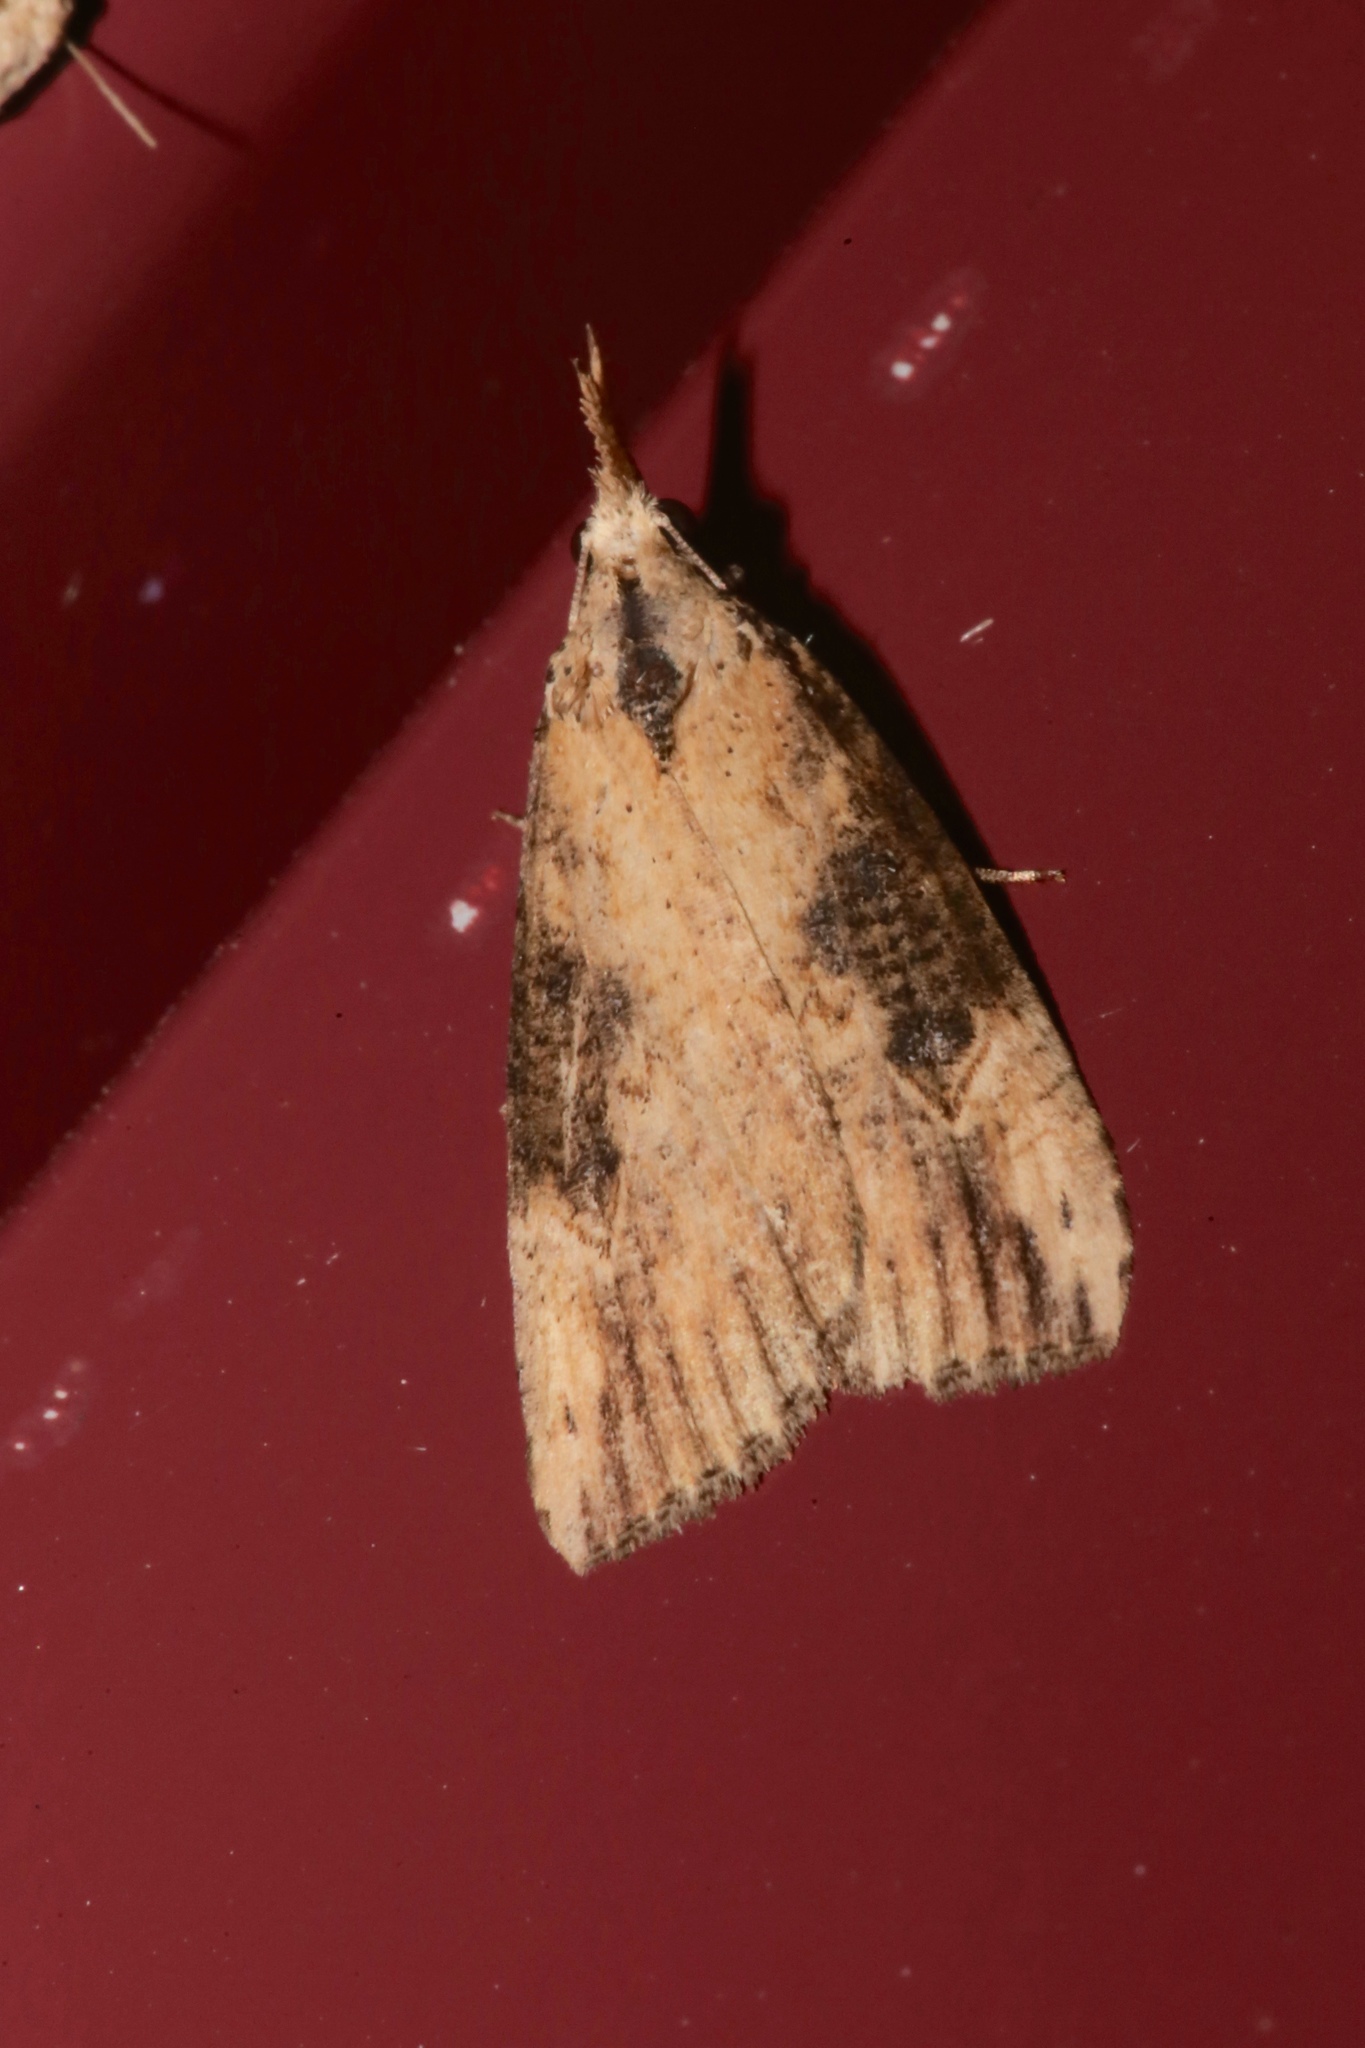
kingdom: Animalia
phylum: Arthropoda
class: Insecta
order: Lepidoptera
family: Erebidae
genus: Hypena
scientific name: Hypena humuli
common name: Hop vine snout
